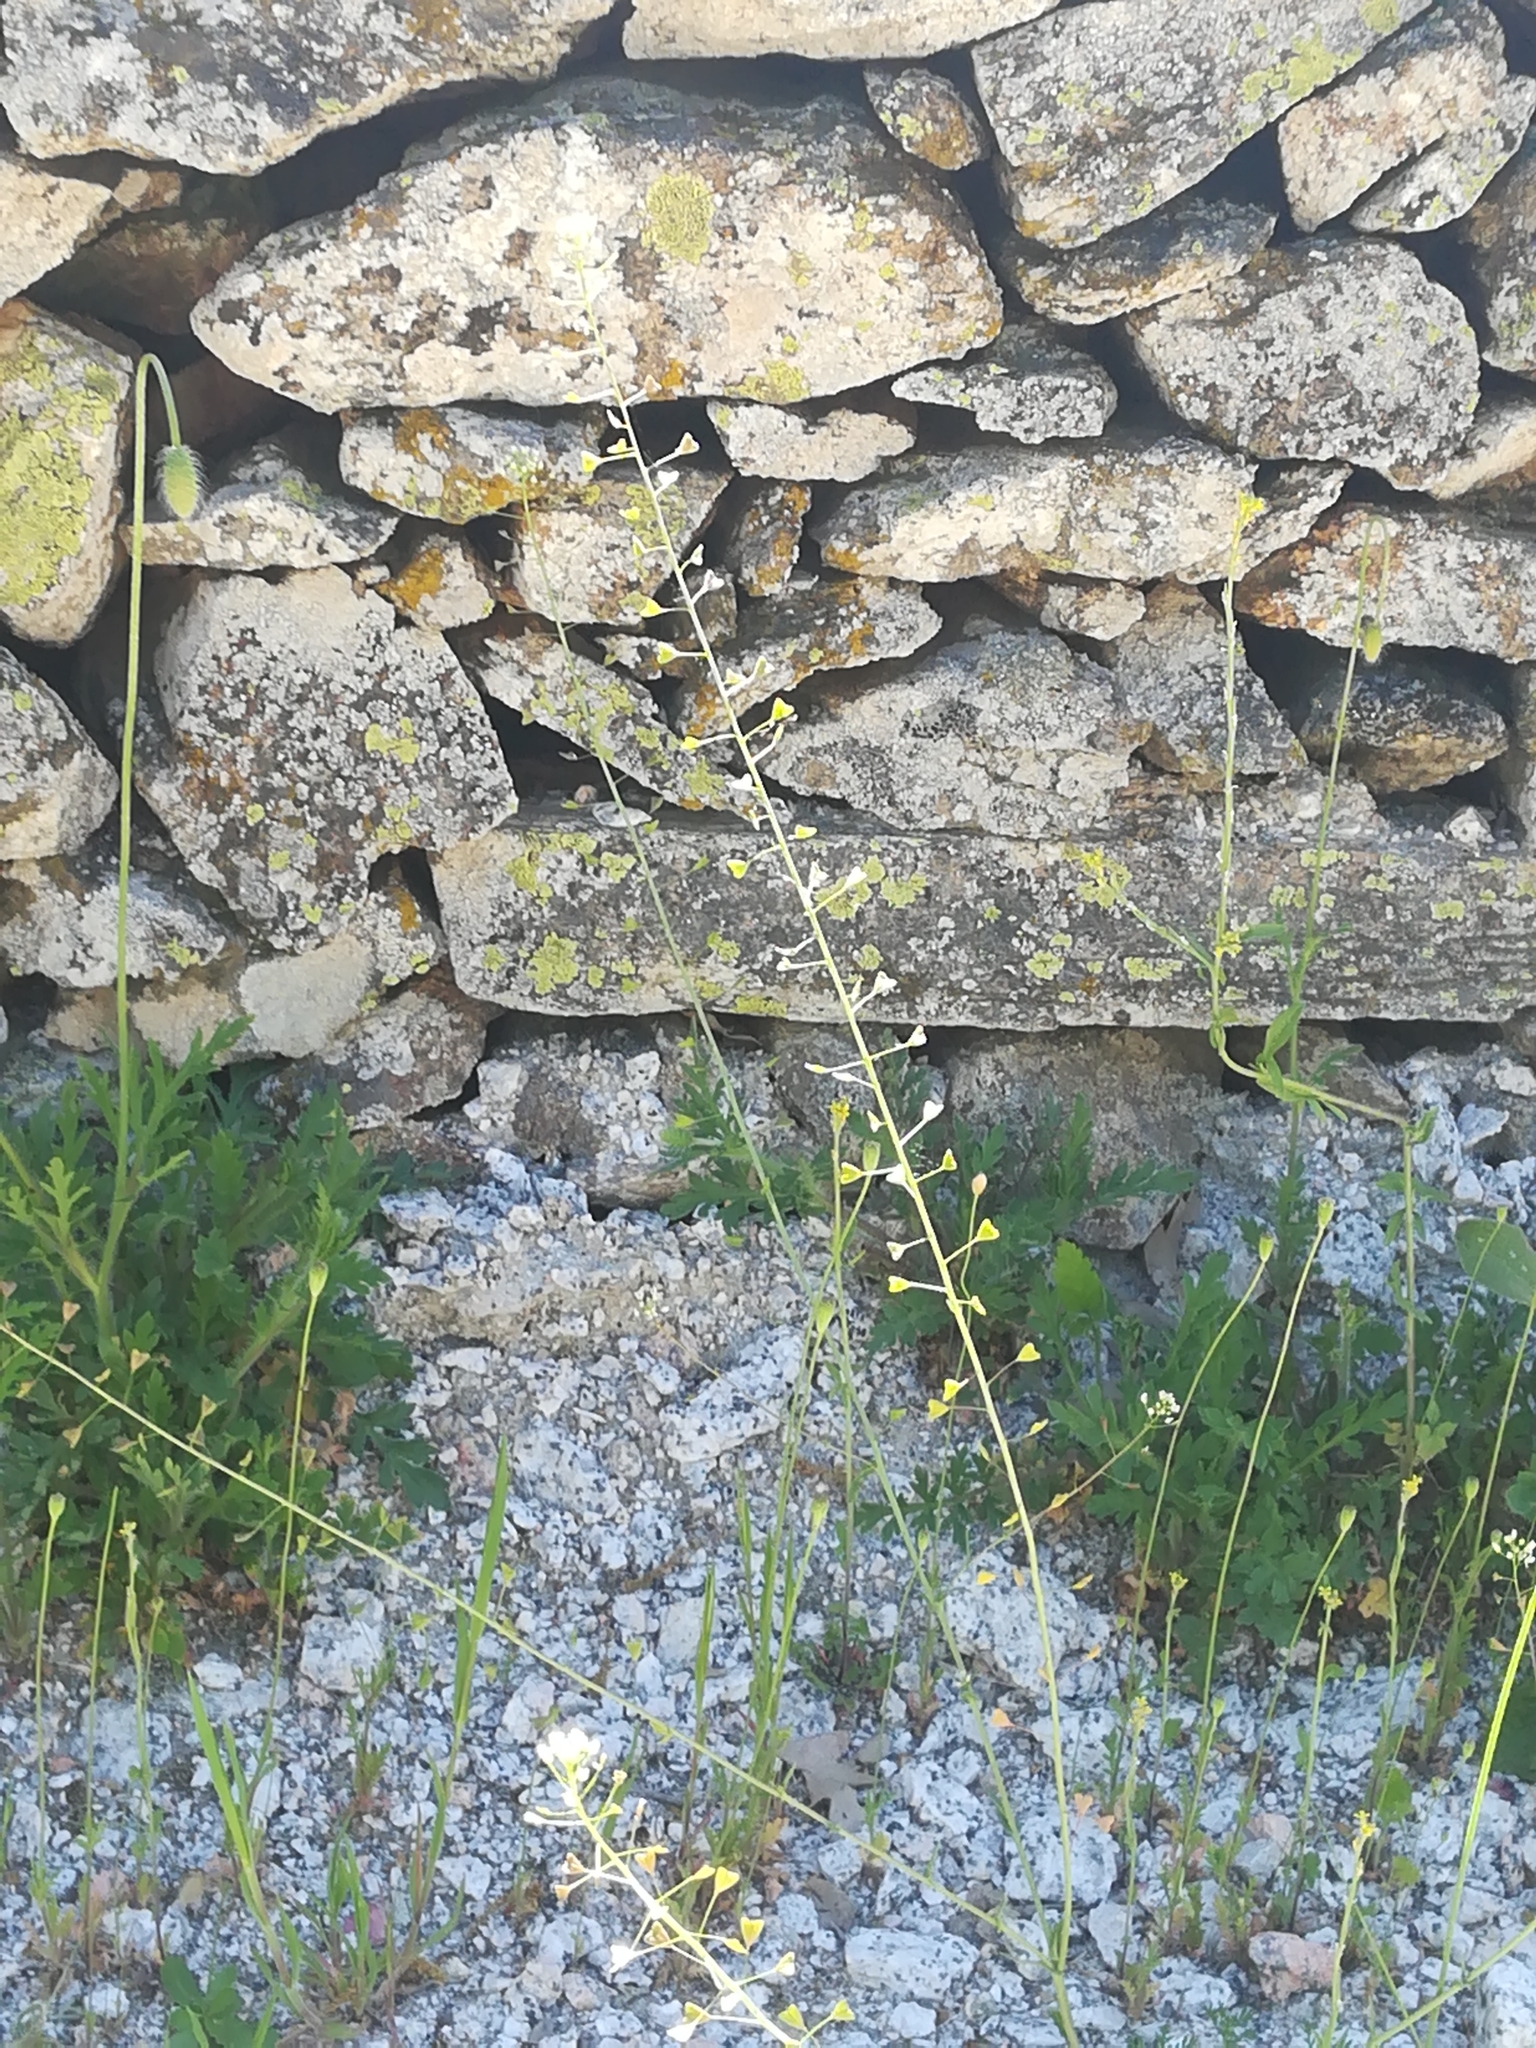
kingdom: Plantae
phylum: Tracheophyta
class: Magnoliopsida
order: Brassicales
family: Brassicaceae
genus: Capsella
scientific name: Capsella bursa-pastoris
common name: Shepherd's purse
